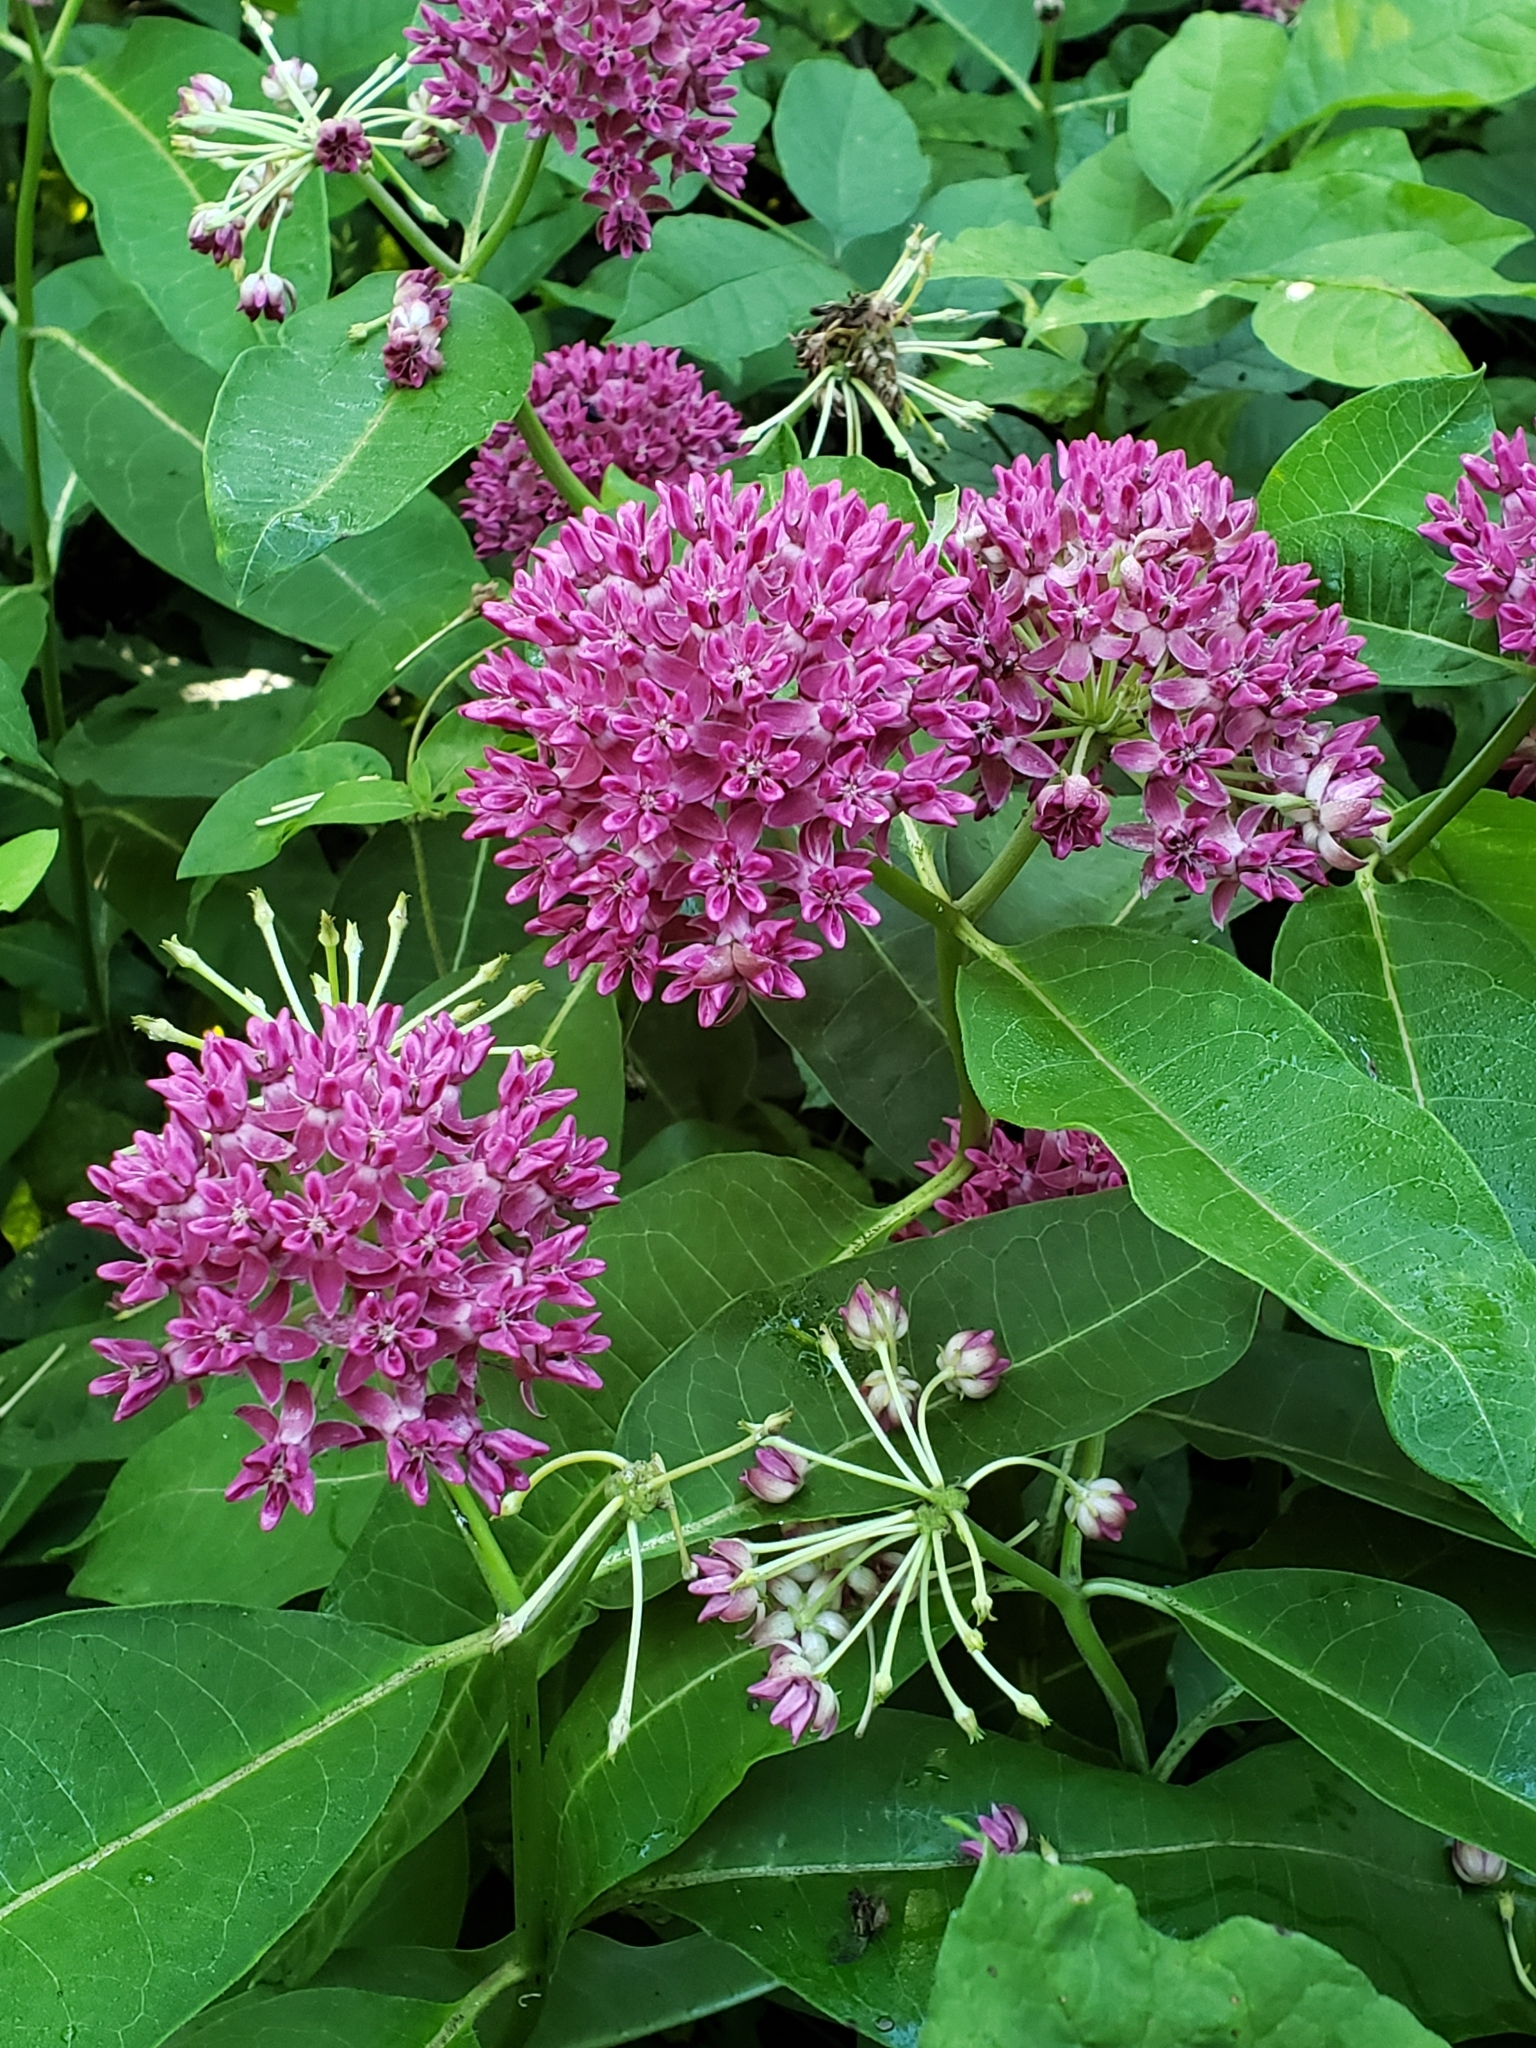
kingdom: Plantae
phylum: Tracheophyta
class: Magnoliopsida
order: Gentianales
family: Apocynaceae
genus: Asclepias
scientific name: Asclepias purpurascens
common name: Purple milkweed
